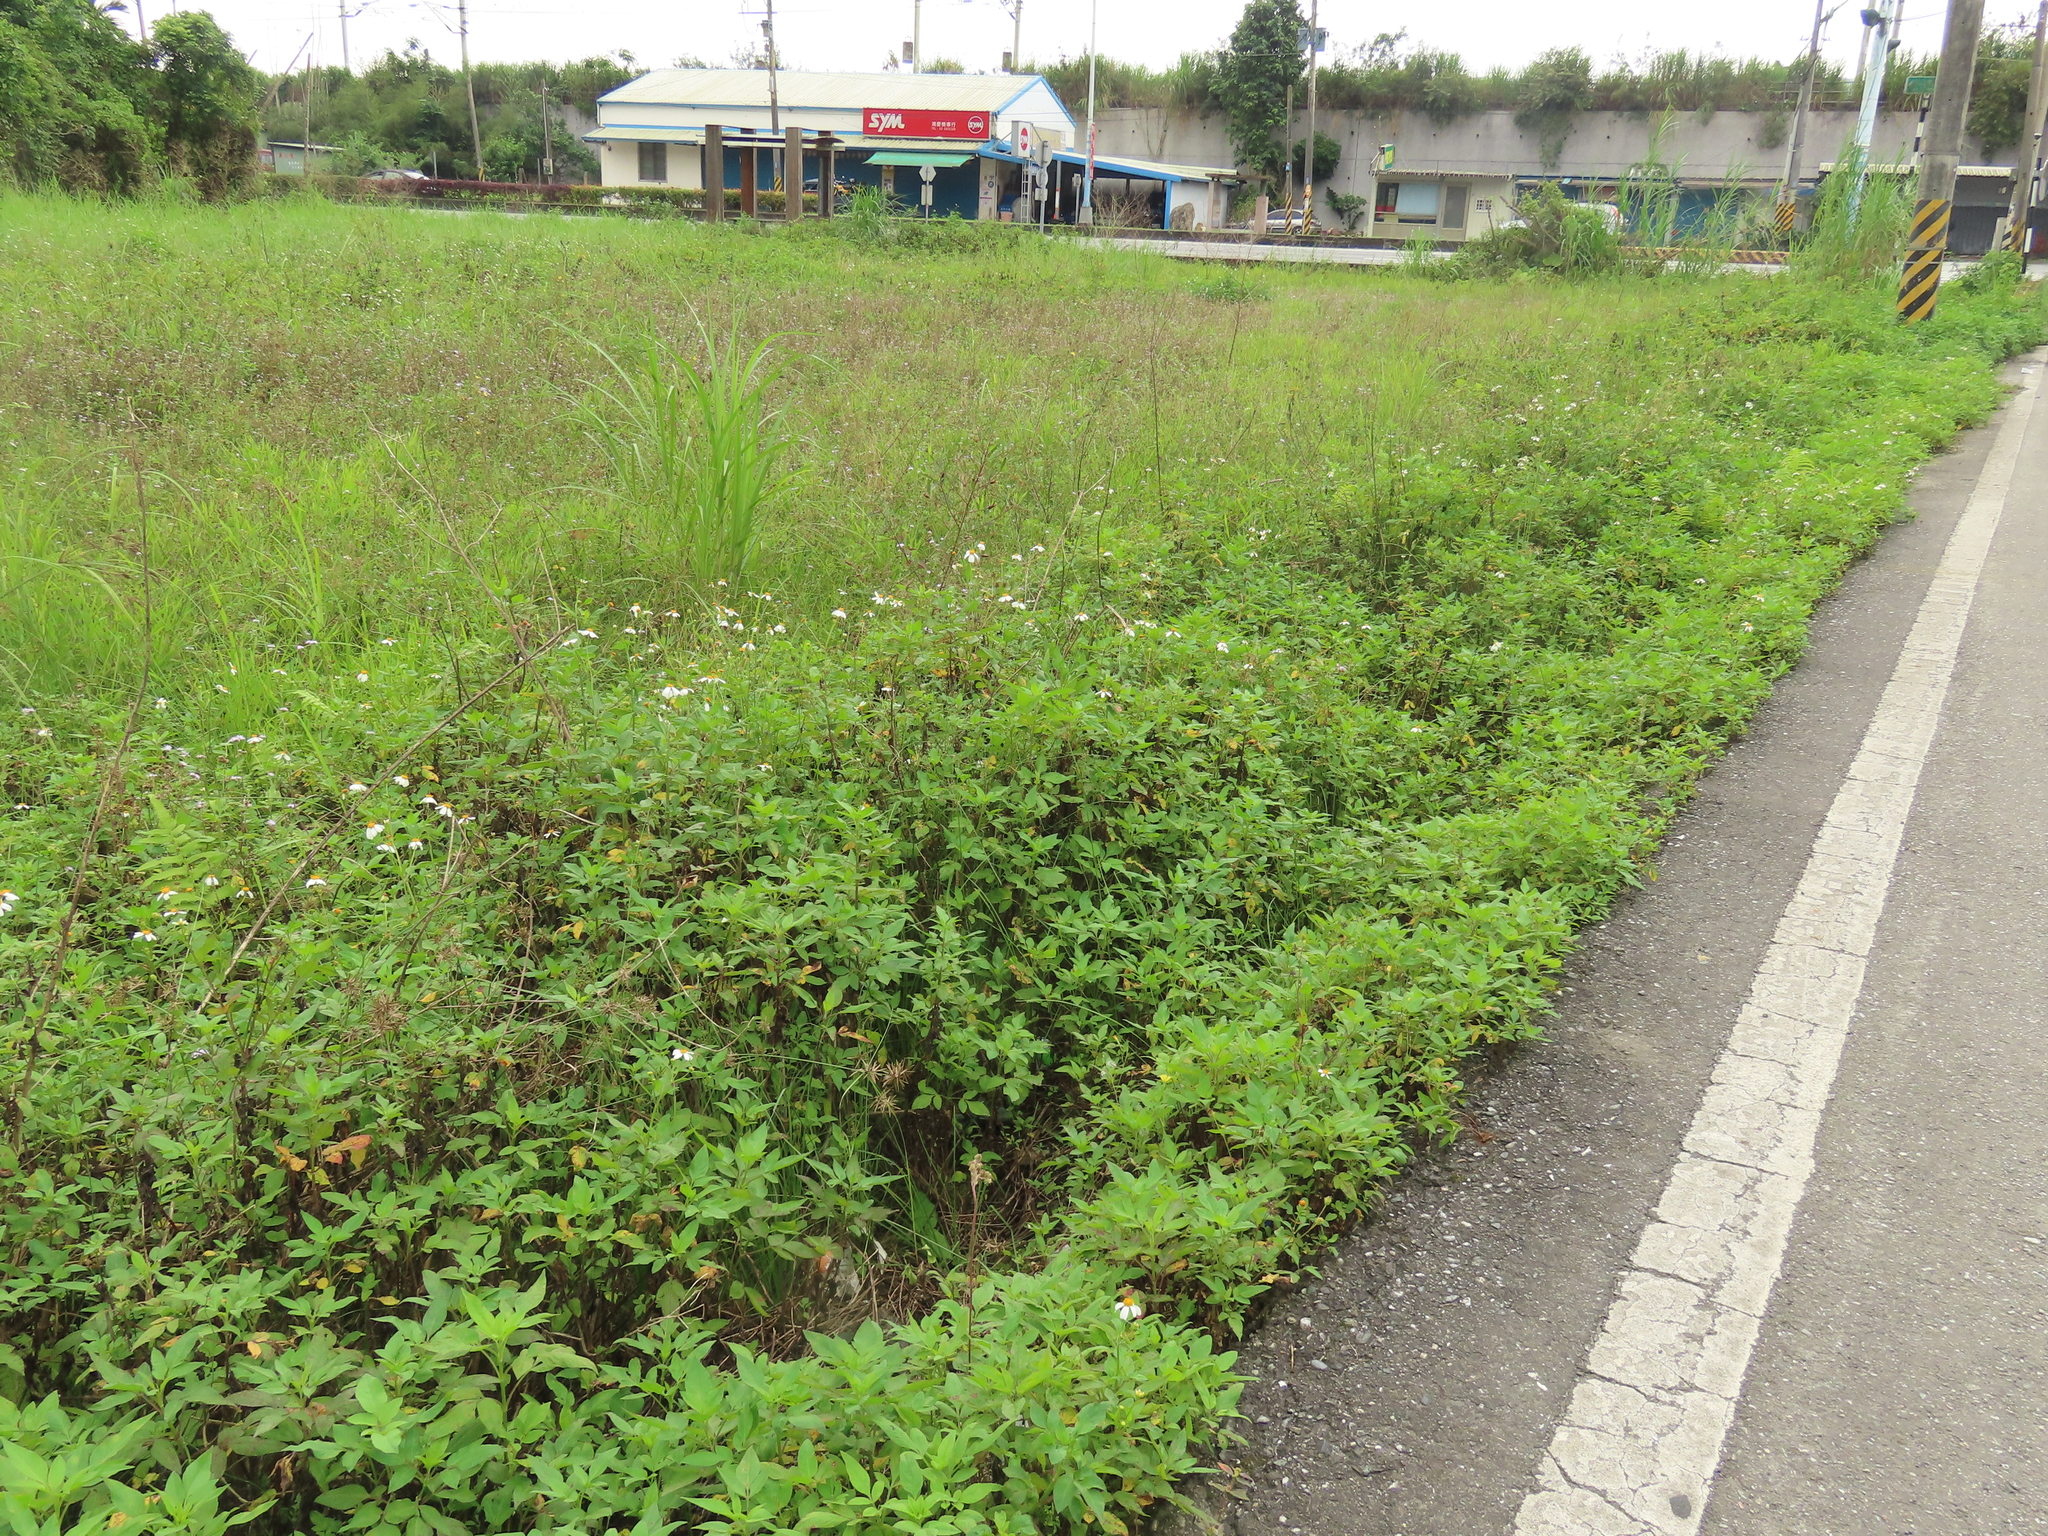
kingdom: Plantae
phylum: Tracheophyta
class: Liliopsida
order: Poales
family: Cyperaceae
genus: Cyperus
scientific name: Cyperus flavidus
